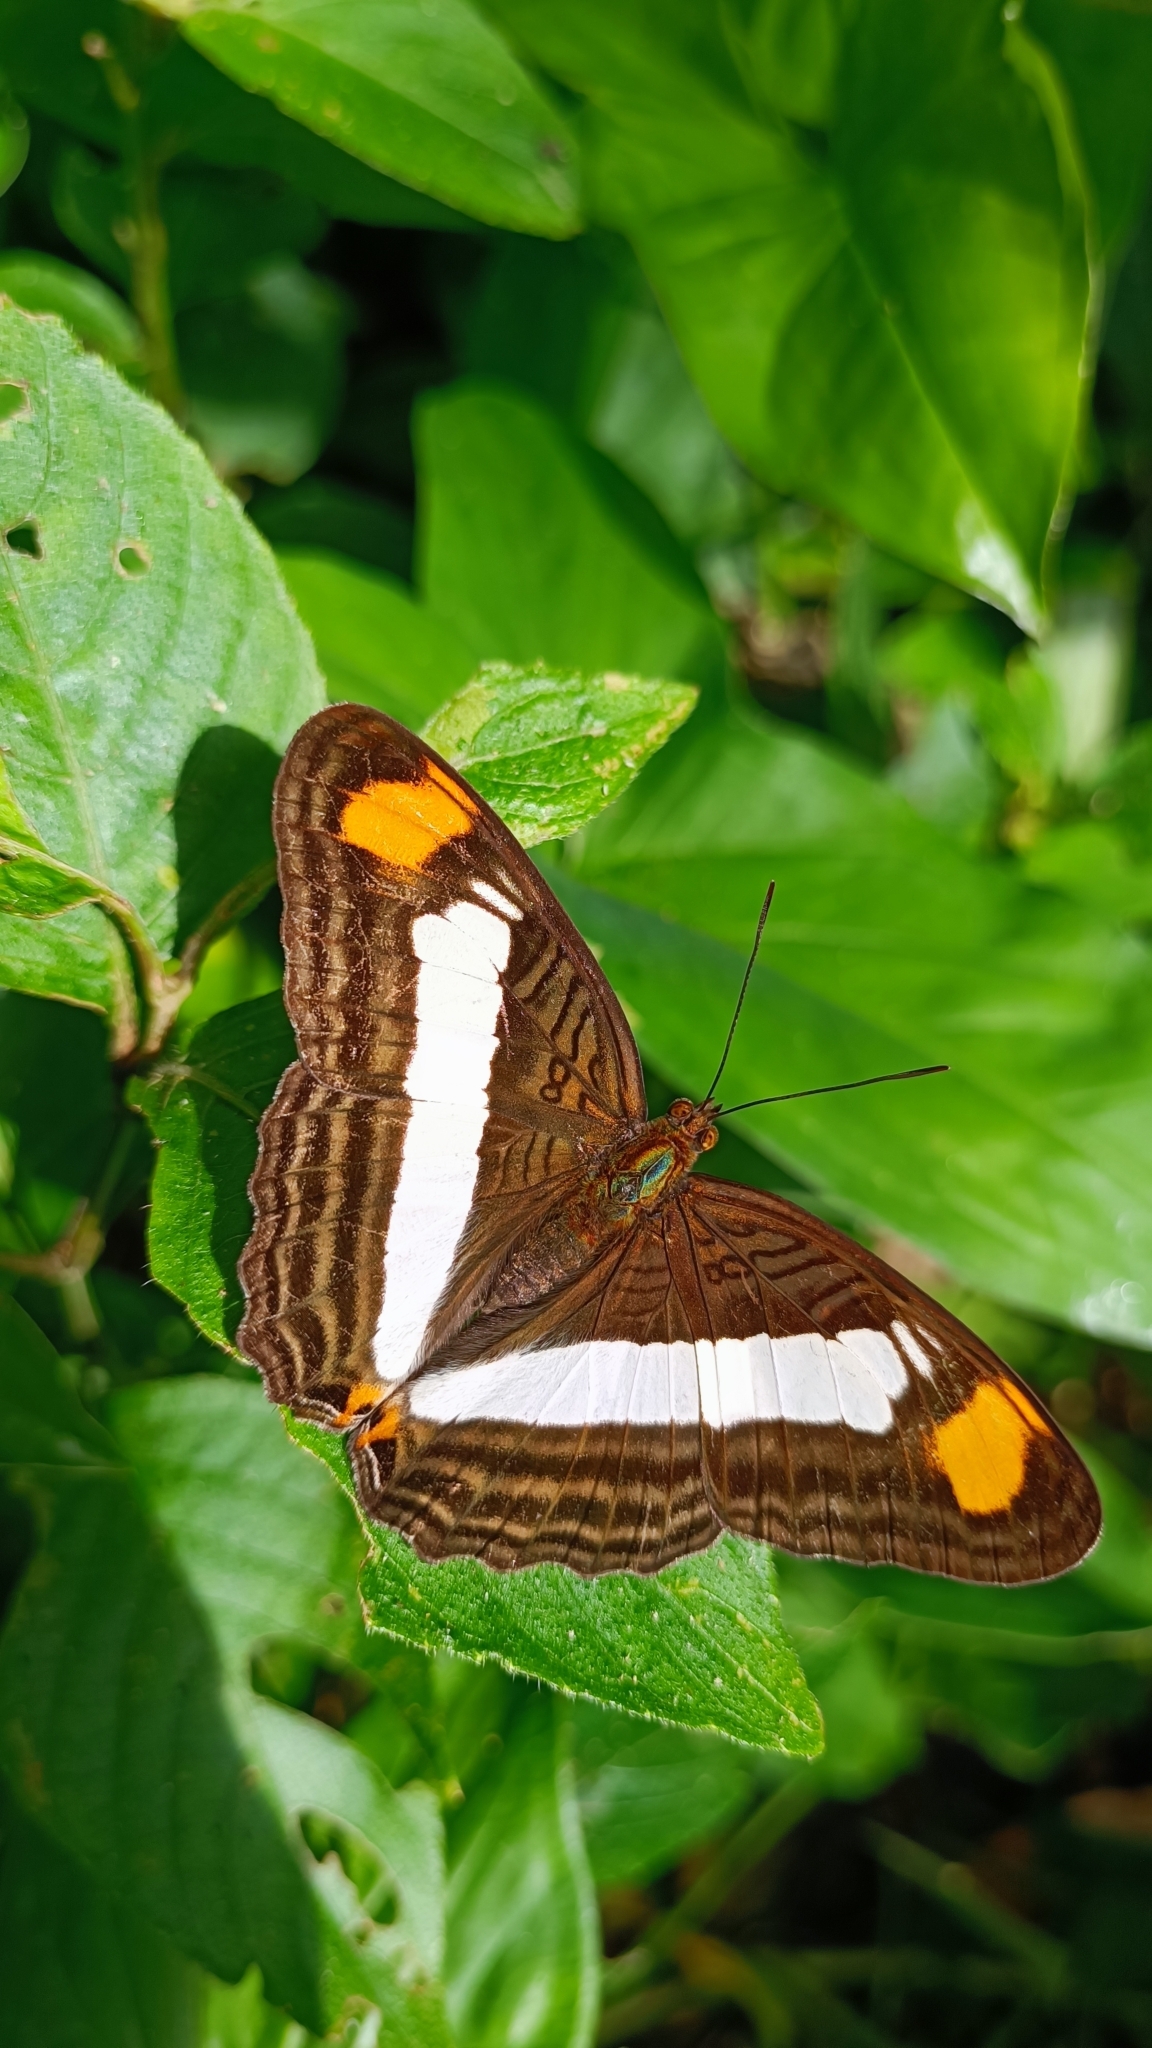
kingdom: Animalia
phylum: Arthropoda
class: Insecta
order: Lepidoptera
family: Nymphalidae
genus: Limenitis
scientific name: Limenitis Adelpha basiloides
